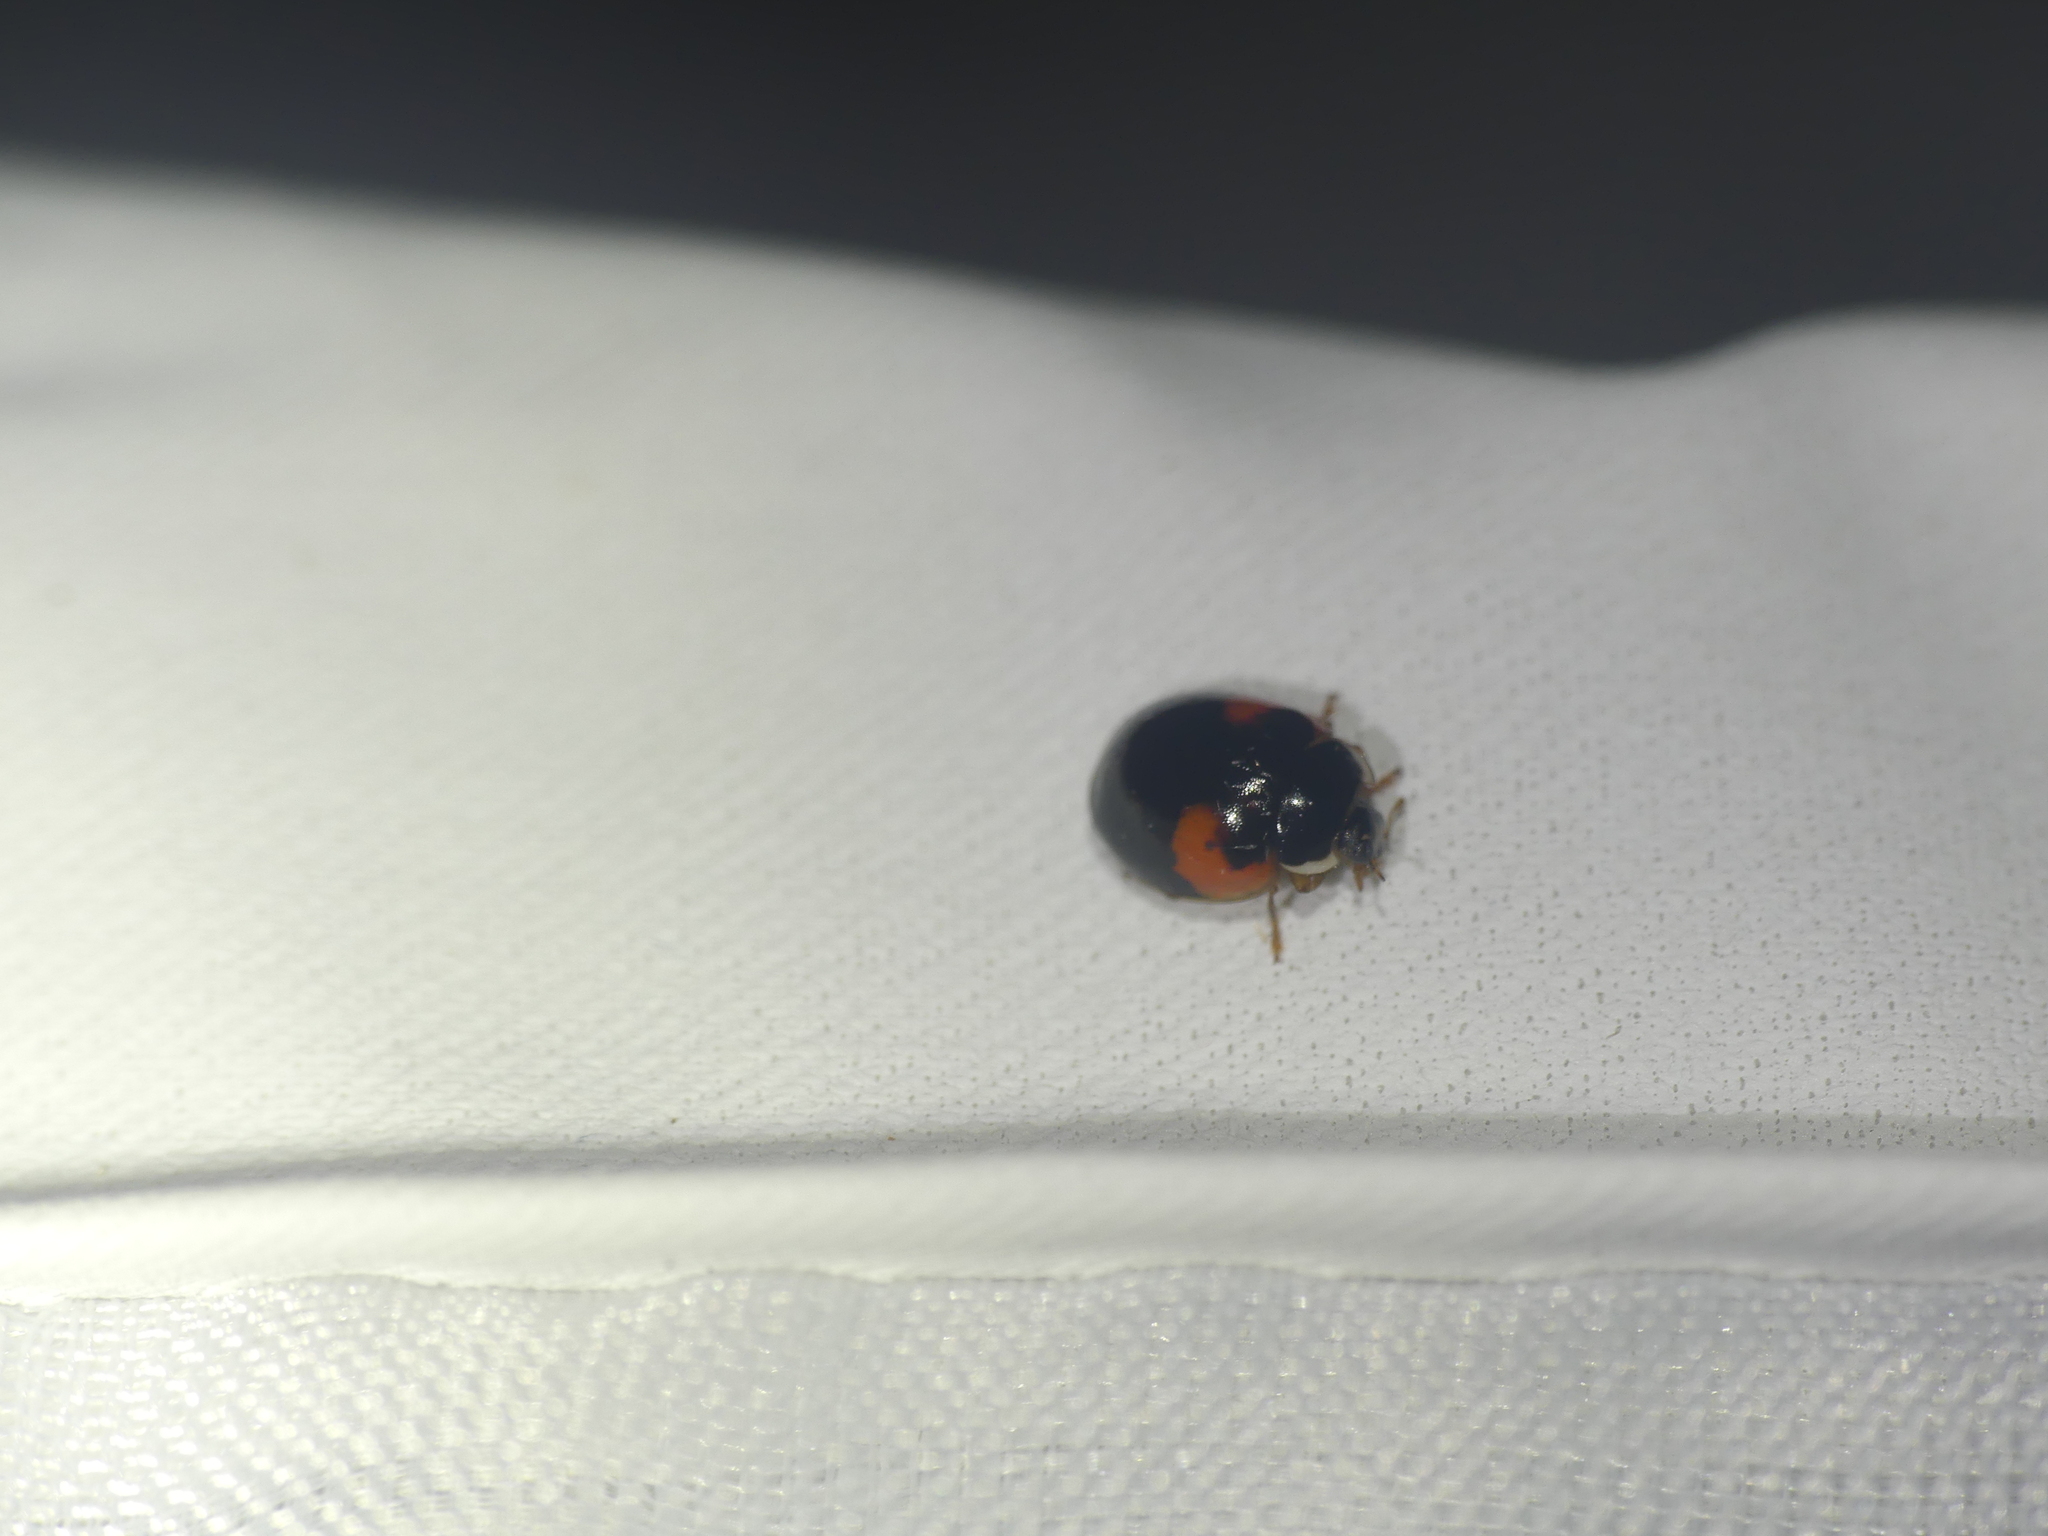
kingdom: Animalia
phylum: Arthropoda
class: Insecta
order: Coleoptera
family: Coccinellidae
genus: Adalia
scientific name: Adalia decempunctata
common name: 10-spot ladybird
